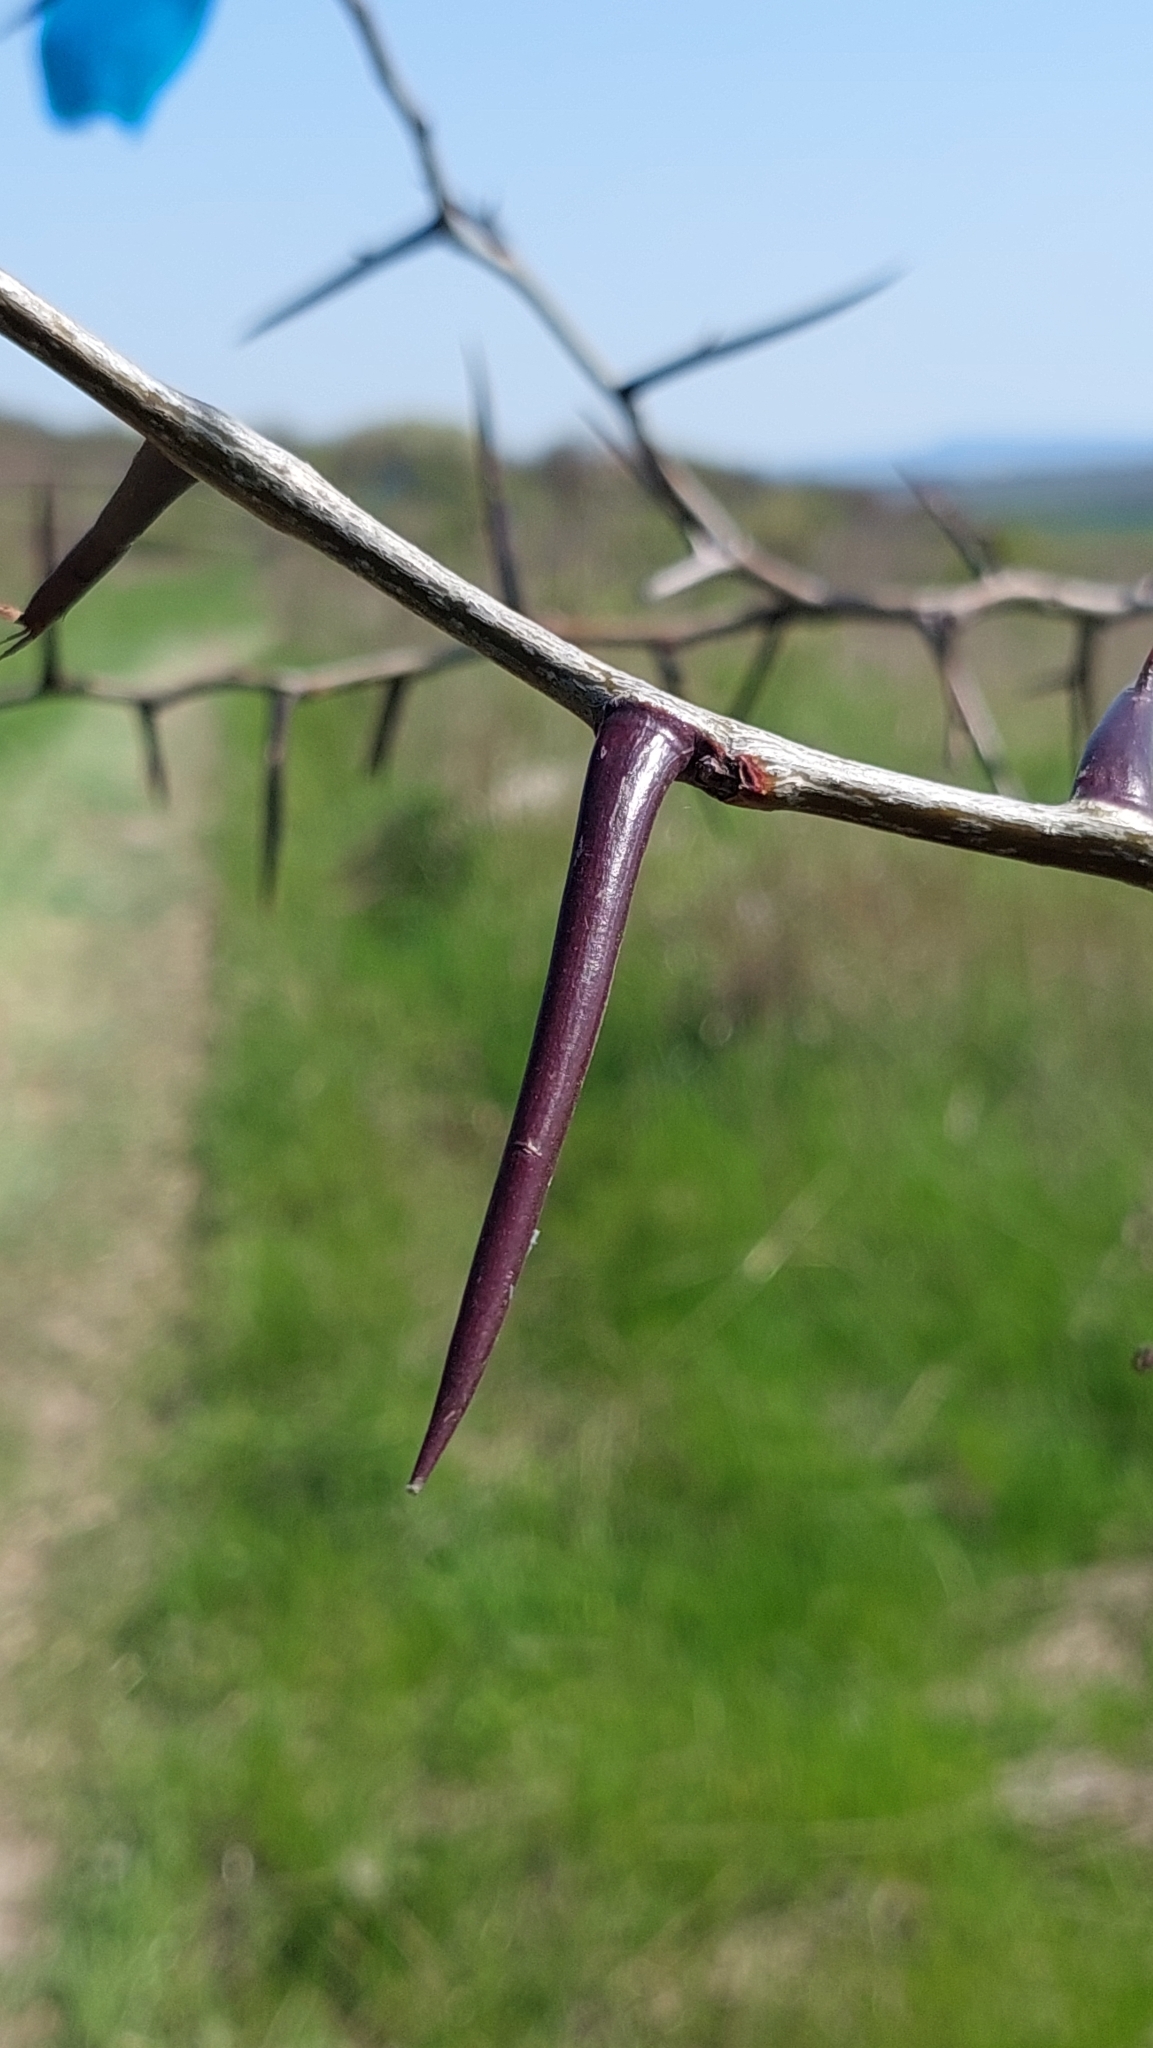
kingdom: Plantae
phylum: Tracheophyta
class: Magnoliopsida
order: Fabales
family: Fabaceae
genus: Gleditsia
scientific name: Gleditsia triacanthos
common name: Common honeylocust
